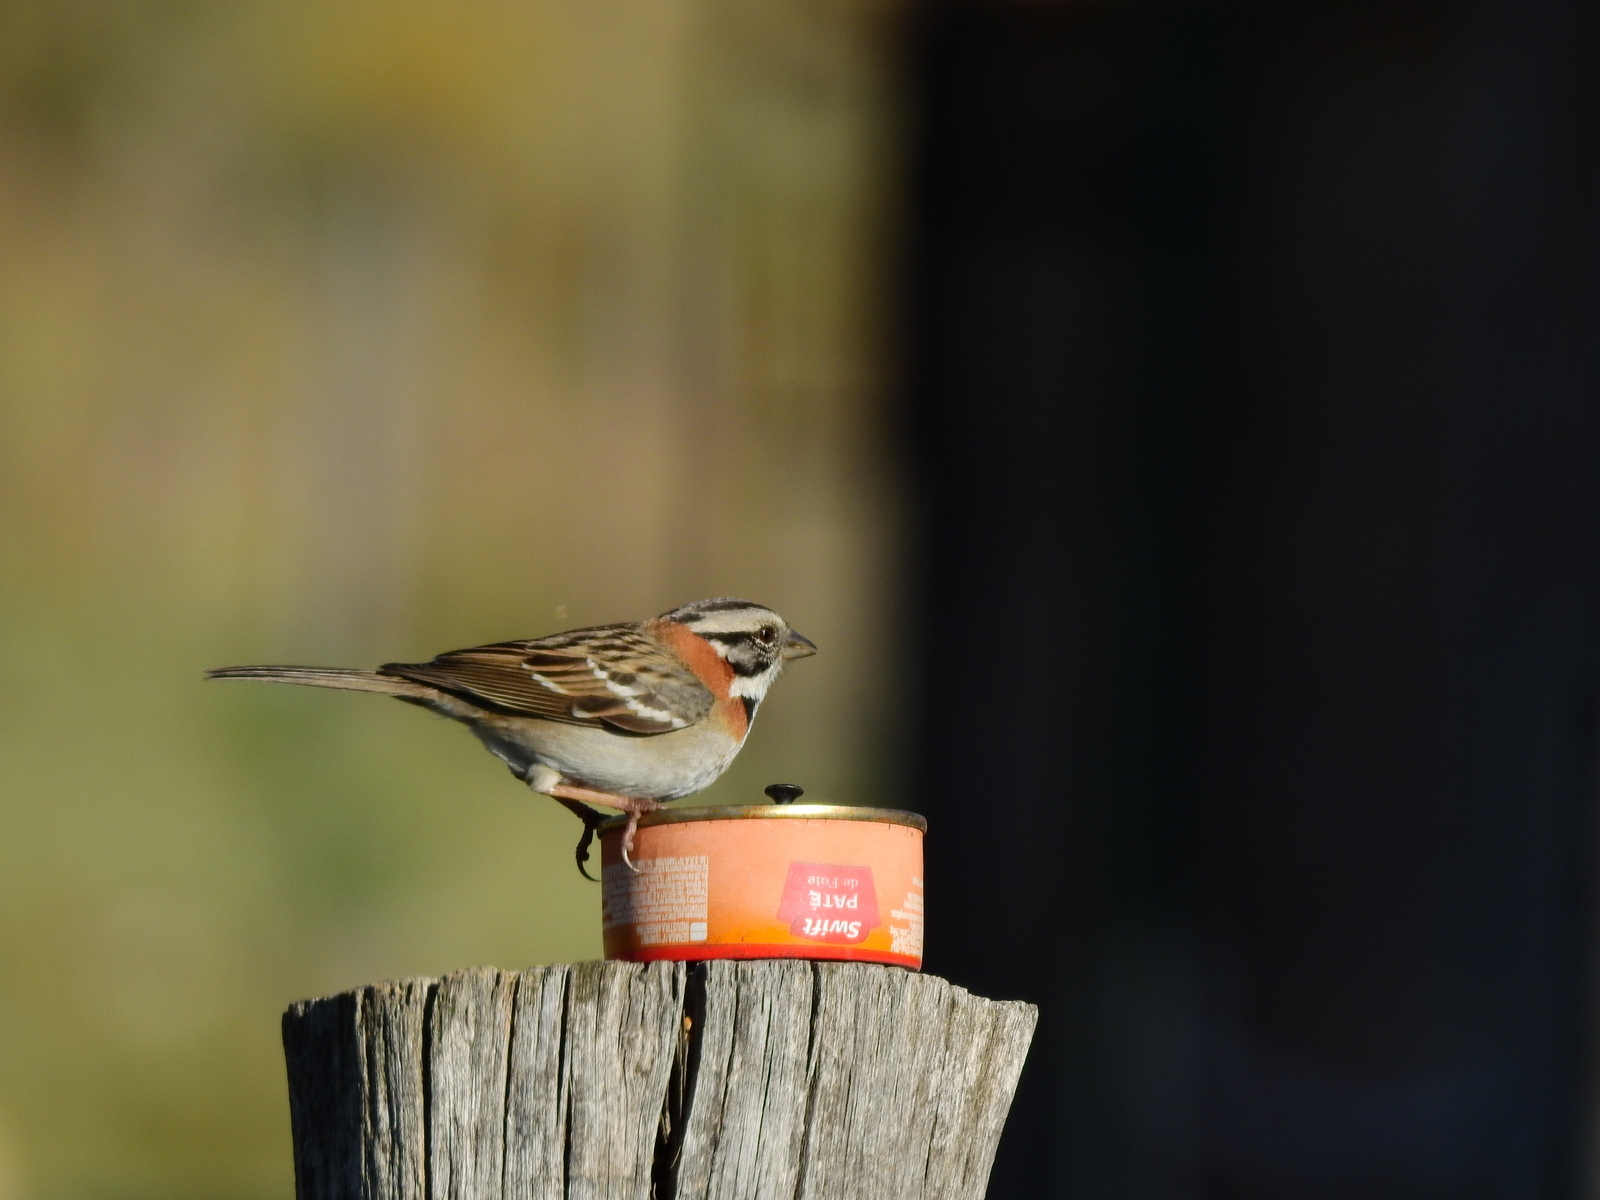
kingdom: Animalia
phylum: Chordata
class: Aves
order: Passeriformes
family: Passerellidae
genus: Zonotrichia
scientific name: Zonotrichia capensis
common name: Rufous-collared sparrow
